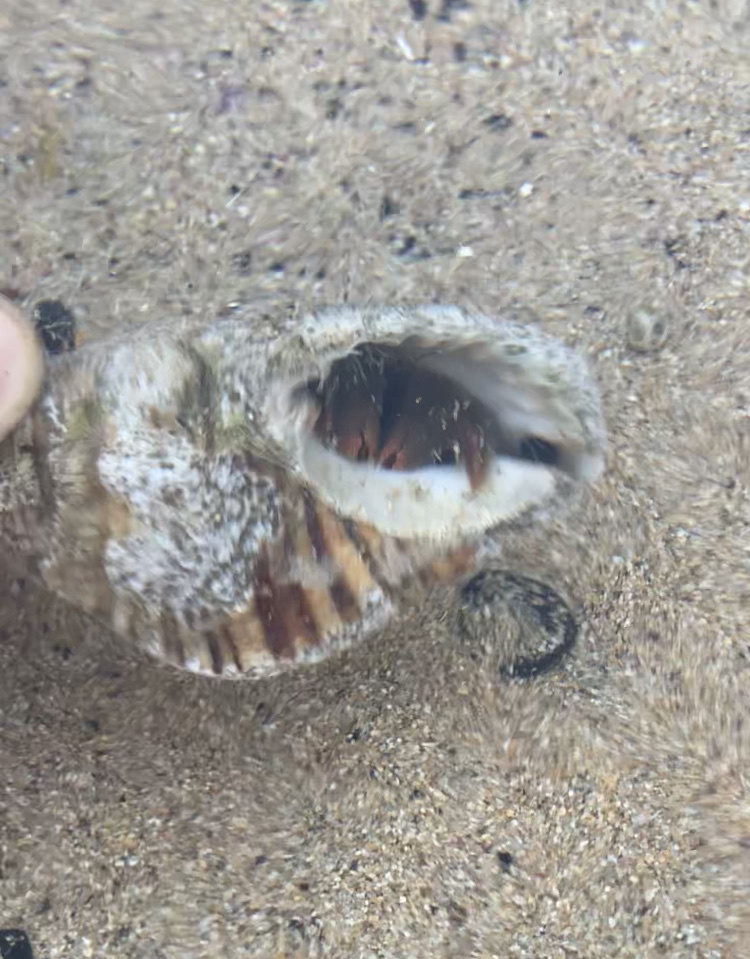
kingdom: Animalia
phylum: Arthropoda
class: Malacostraca
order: Decapoda
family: Diogenidae
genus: Paguristes
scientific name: Paguristes pugil
